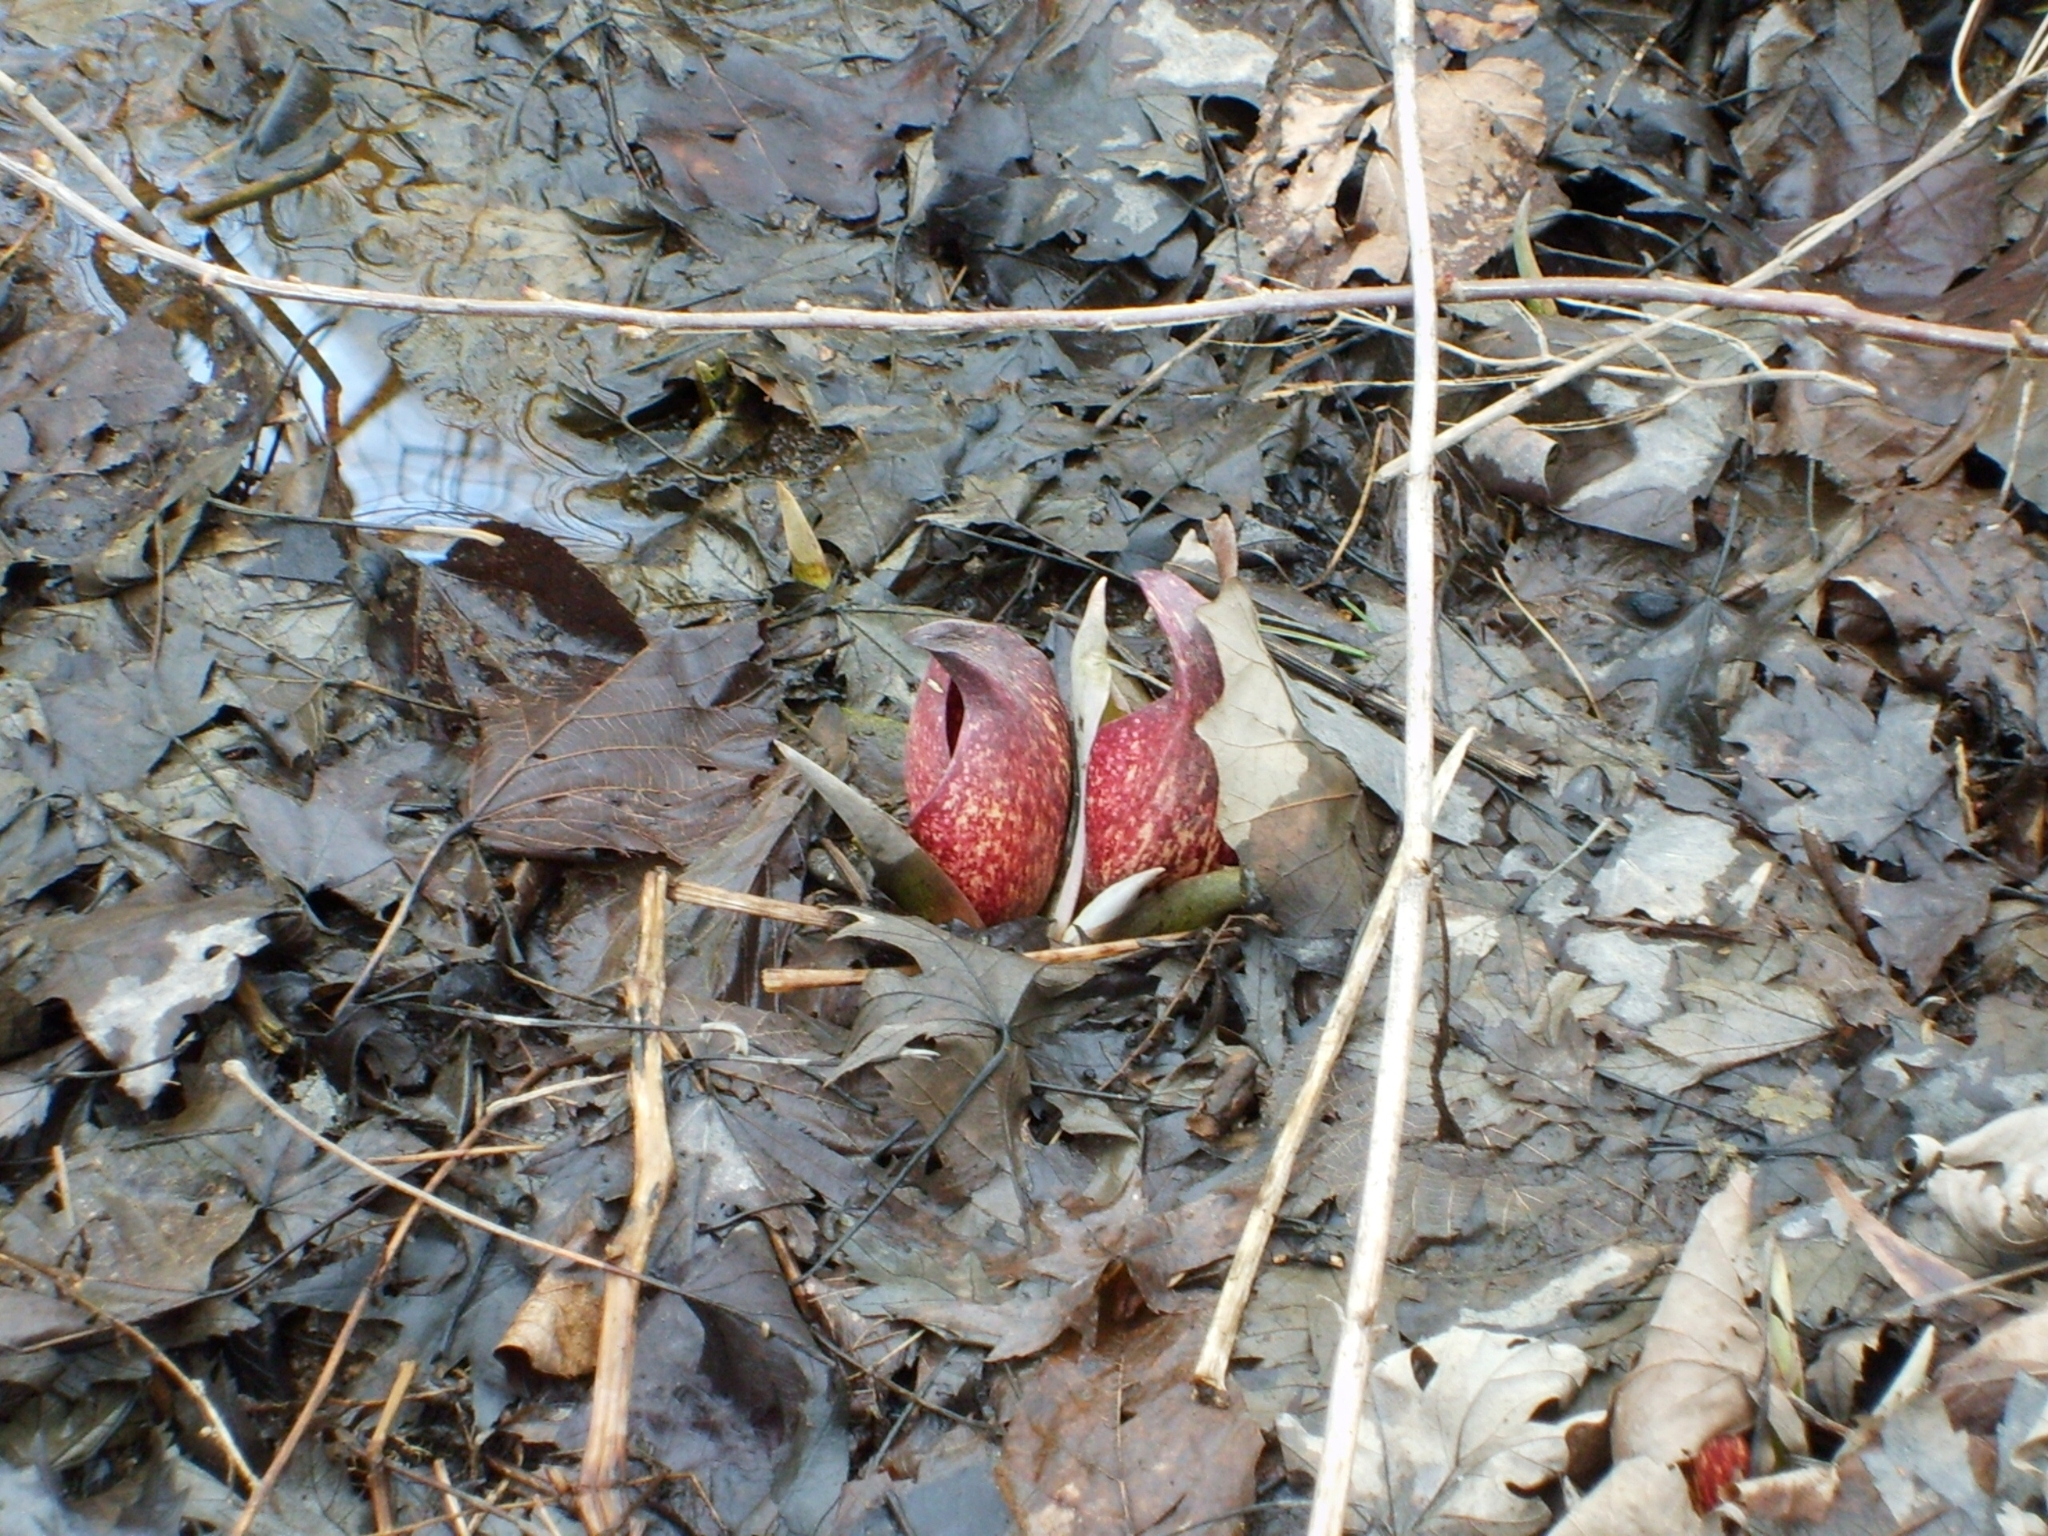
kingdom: Plantae
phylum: Tracheophyta
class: Liliopsida
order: Alismatales
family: Araceae
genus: Symplocarpus
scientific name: Symplocarpus foetidus
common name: Eastern skunk cabbage
